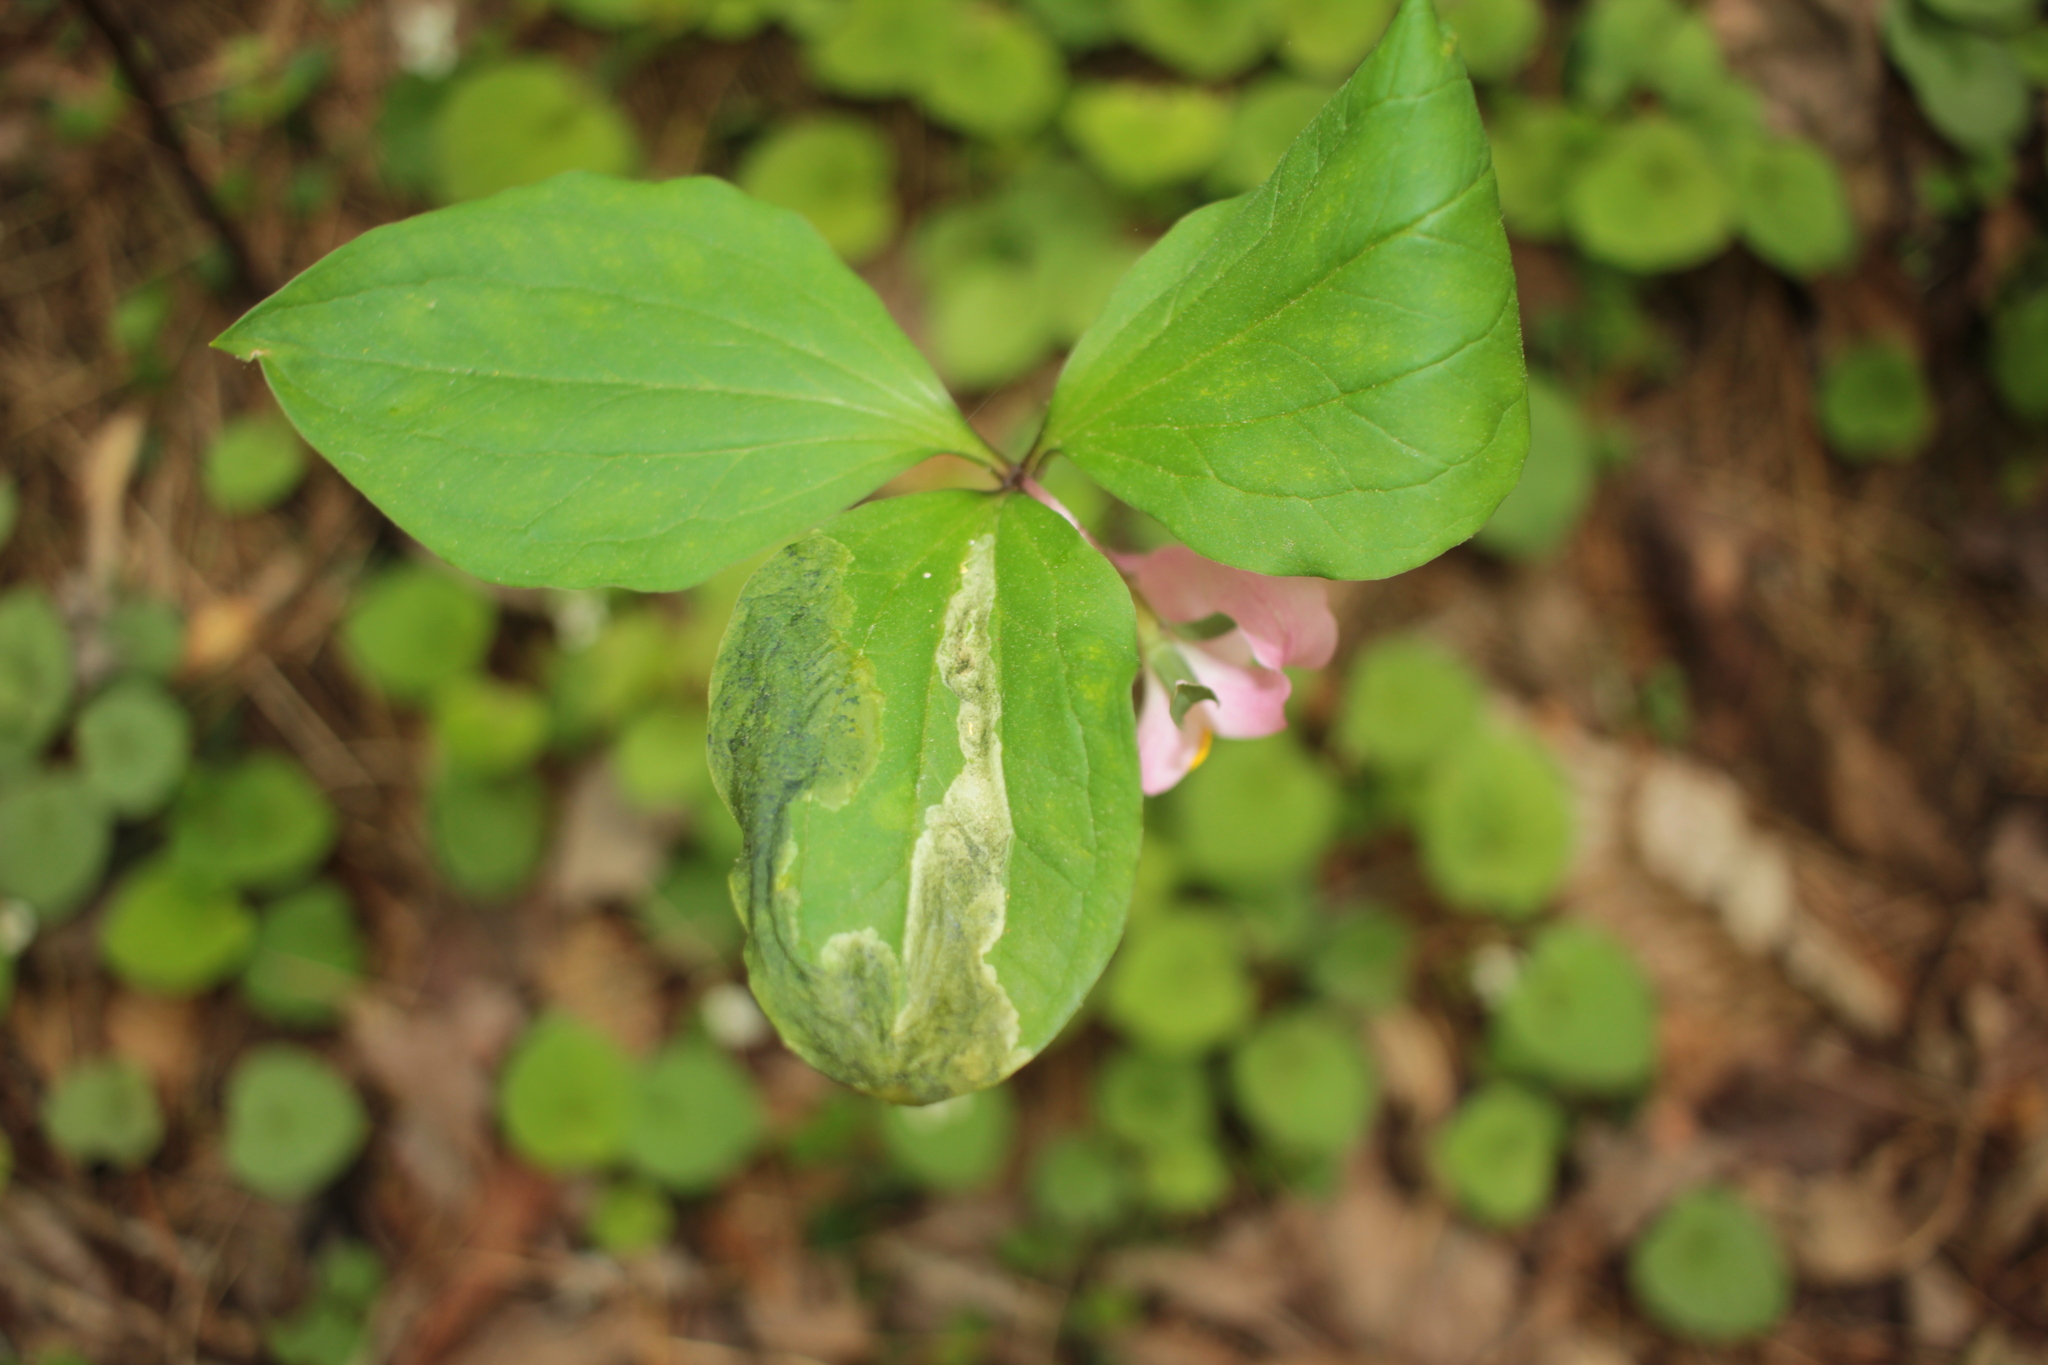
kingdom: Plantae
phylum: Tracheophyta
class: Liliopsida
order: Liliales
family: Melanthiaceae
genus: Trillium
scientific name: Trillium catesbaei
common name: Bashful trillium
